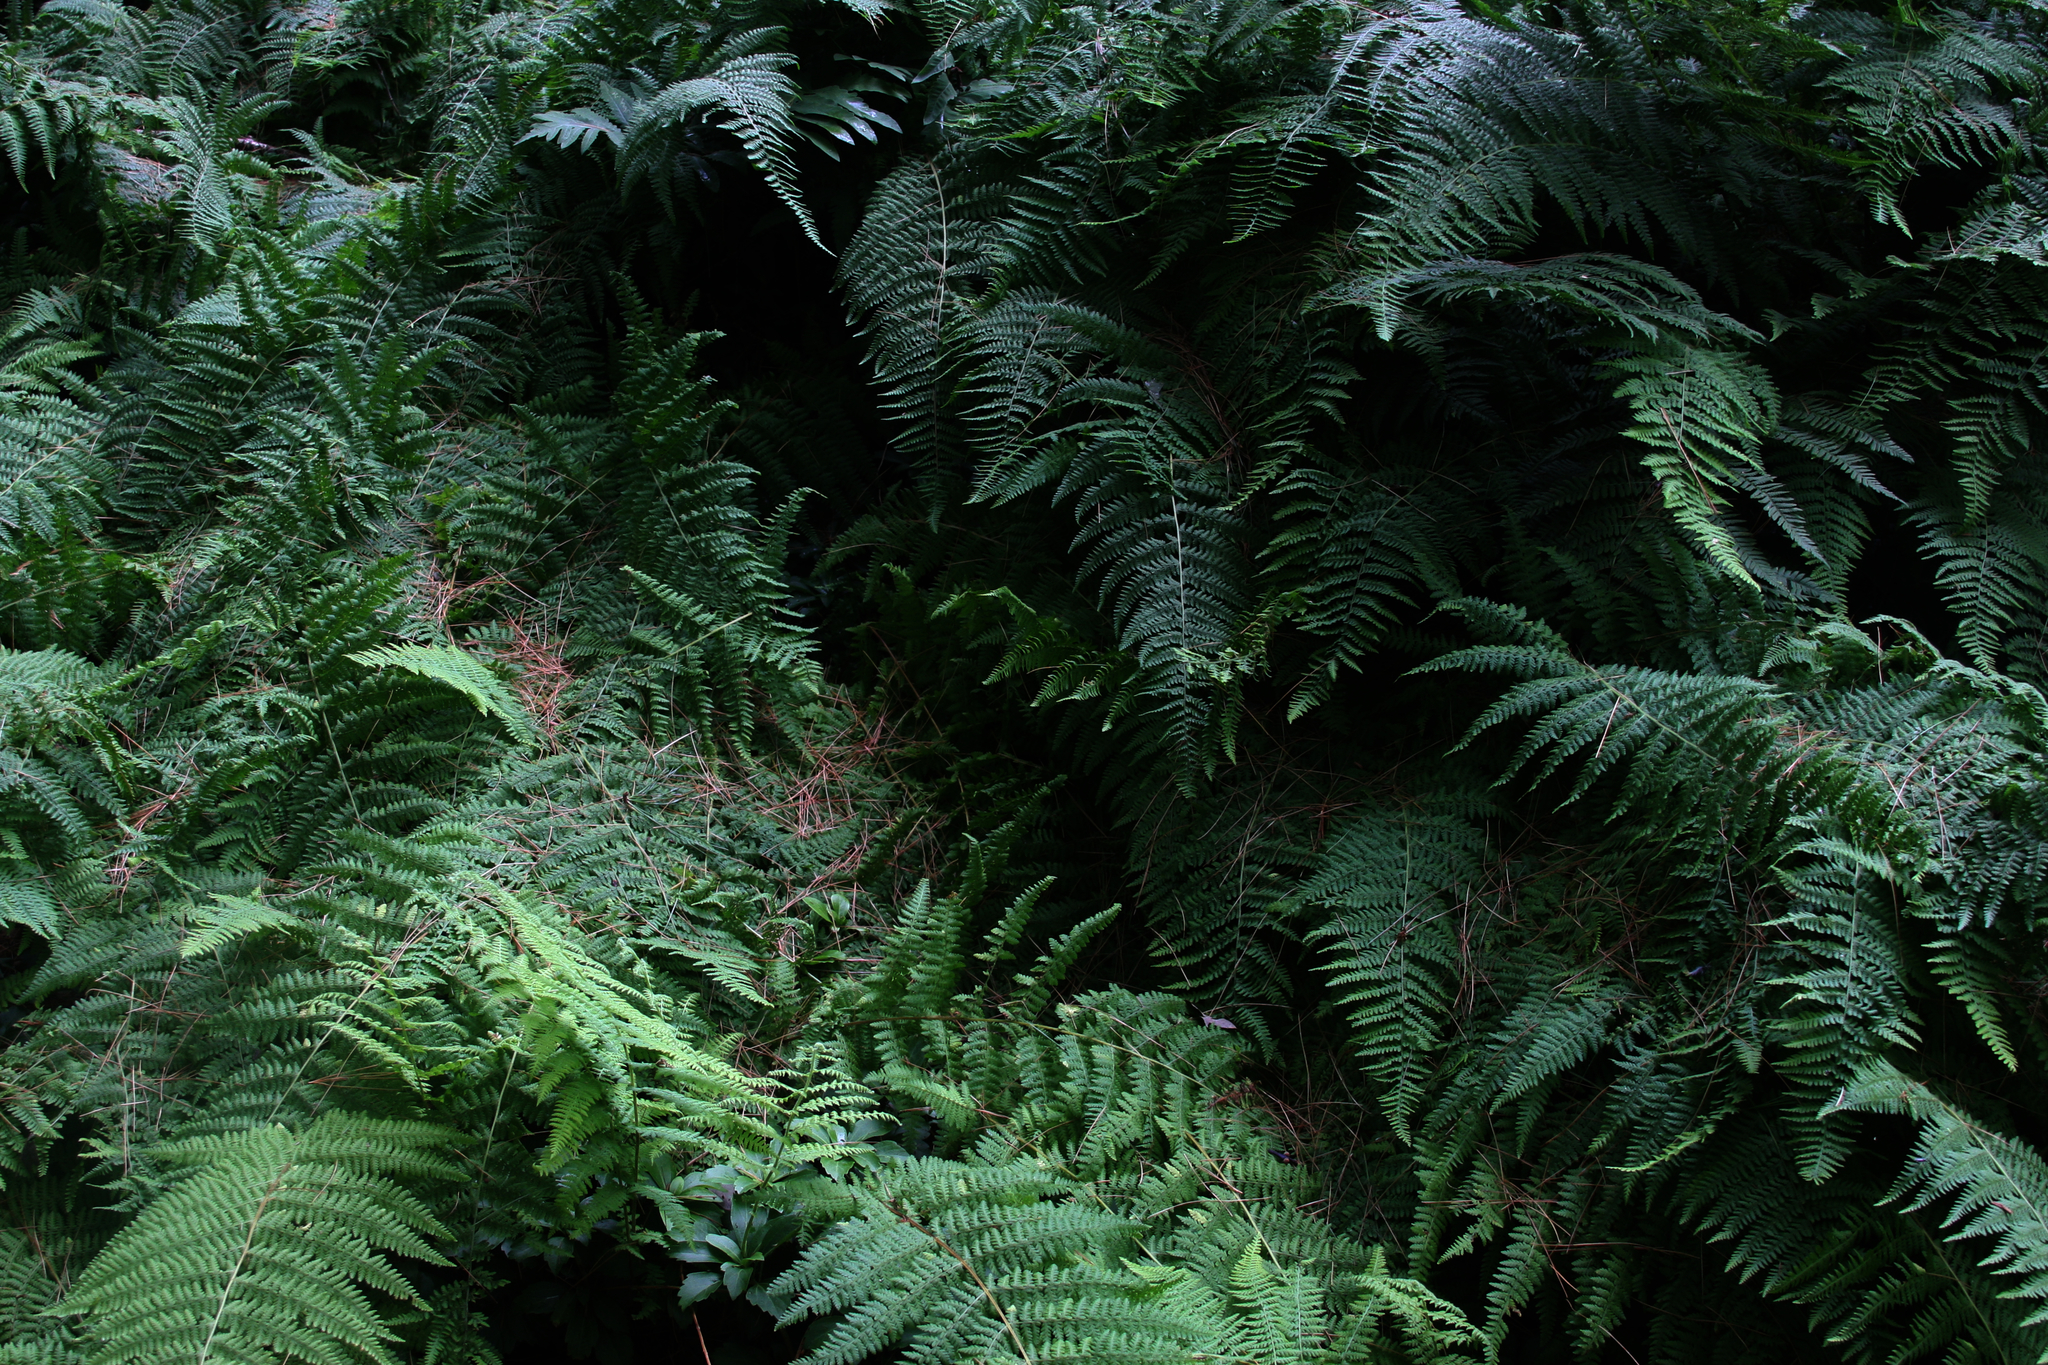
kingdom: Plantae
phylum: Tracheophyta
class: Polypodiopsida
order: Polypodiales
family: Dennstaedtiaceae
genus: Sitobolium
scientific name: Sitobolium punctilobum
